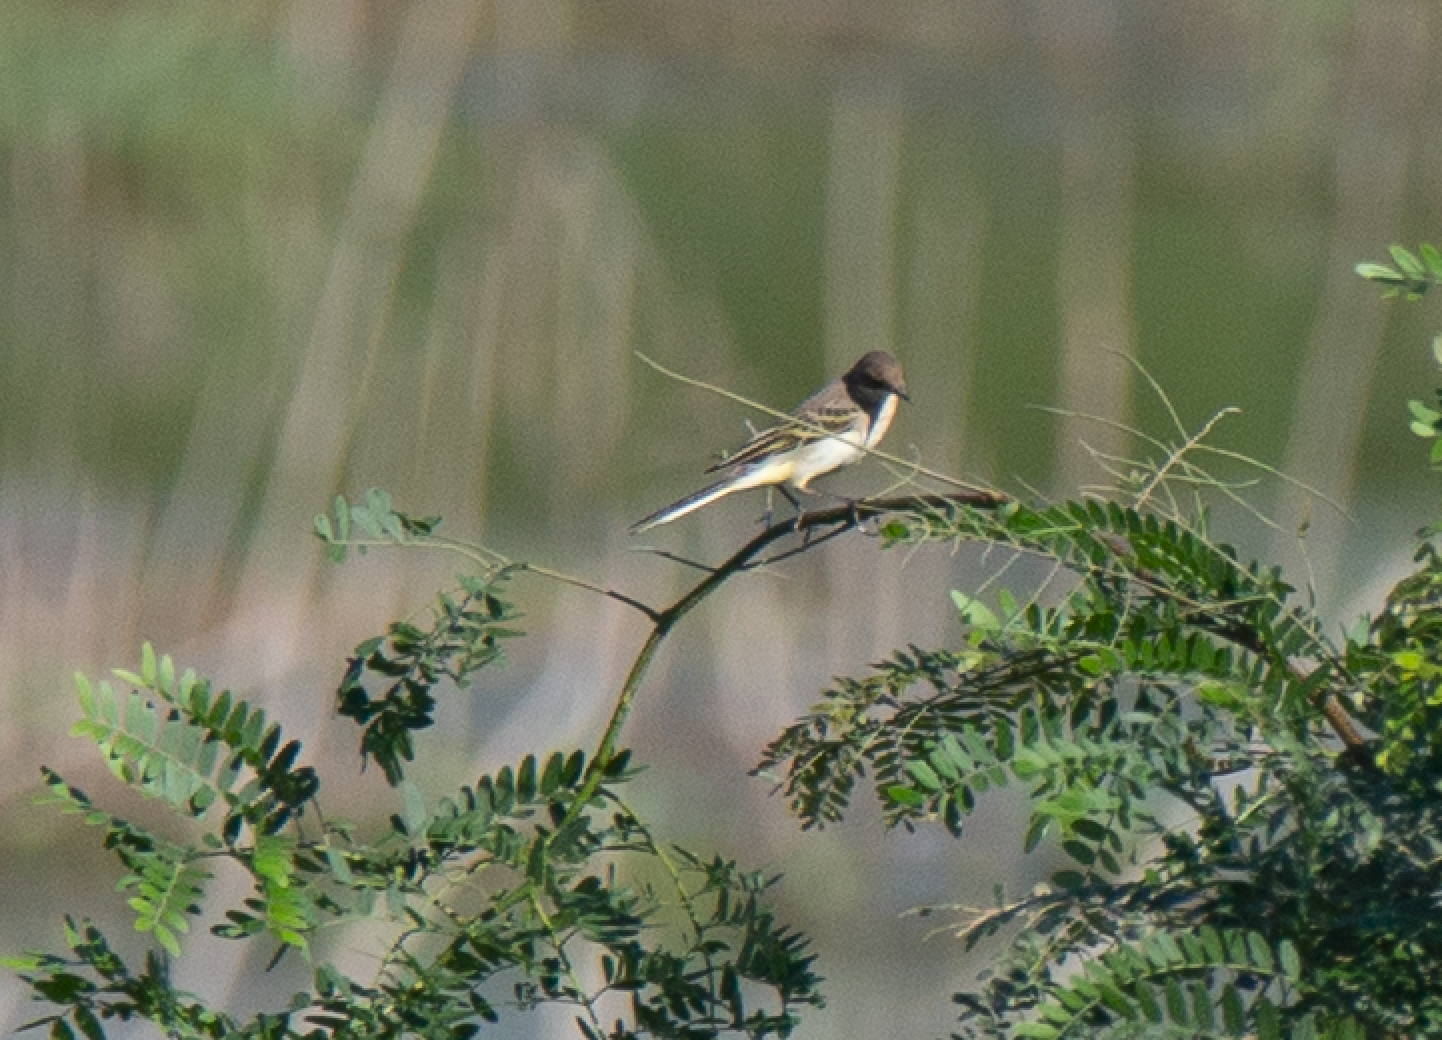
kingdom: Animalia
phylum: Chordata
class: Aves
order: Passeriformes
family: Motacillidae
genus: Motacilla
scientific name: Motacilla flava
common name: Western yellow wagtail
